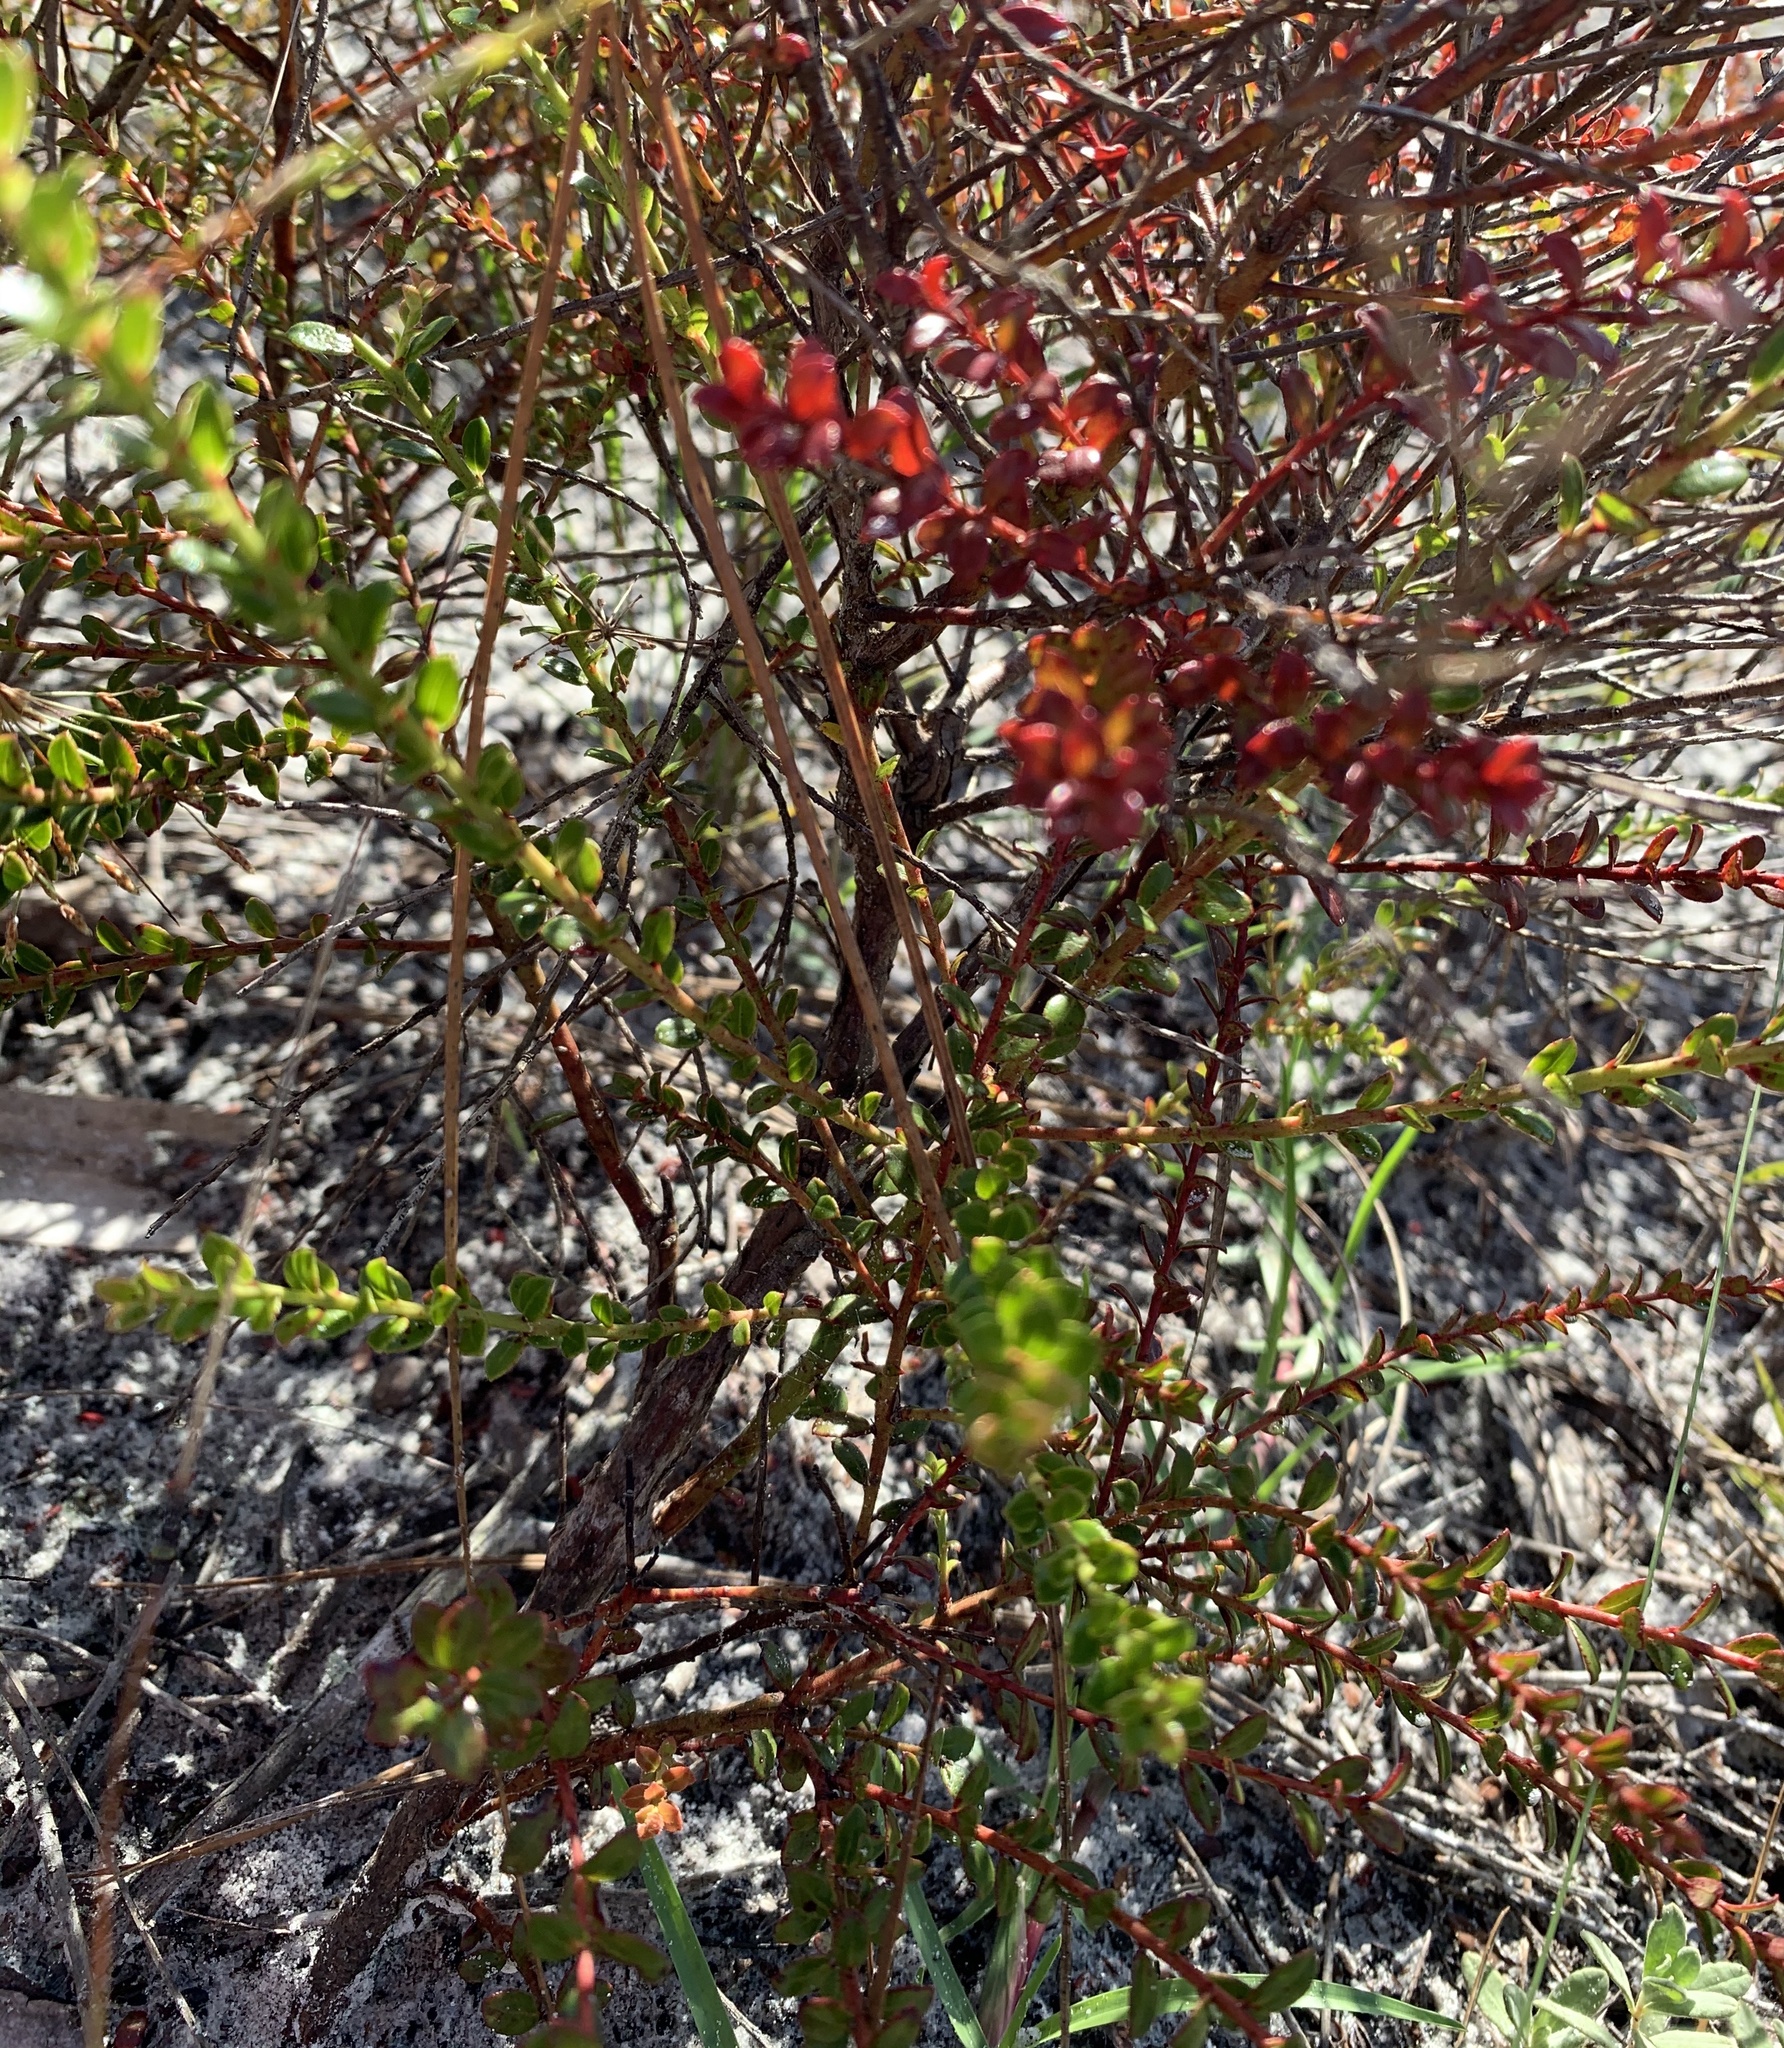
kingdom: Plantae
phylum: Tracheophyta
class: Magnoliopsida
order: Ericales
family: Ericaceae
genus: Vaccinium
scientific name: Vaccinium myrsinites
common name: Evergreen blueberry
